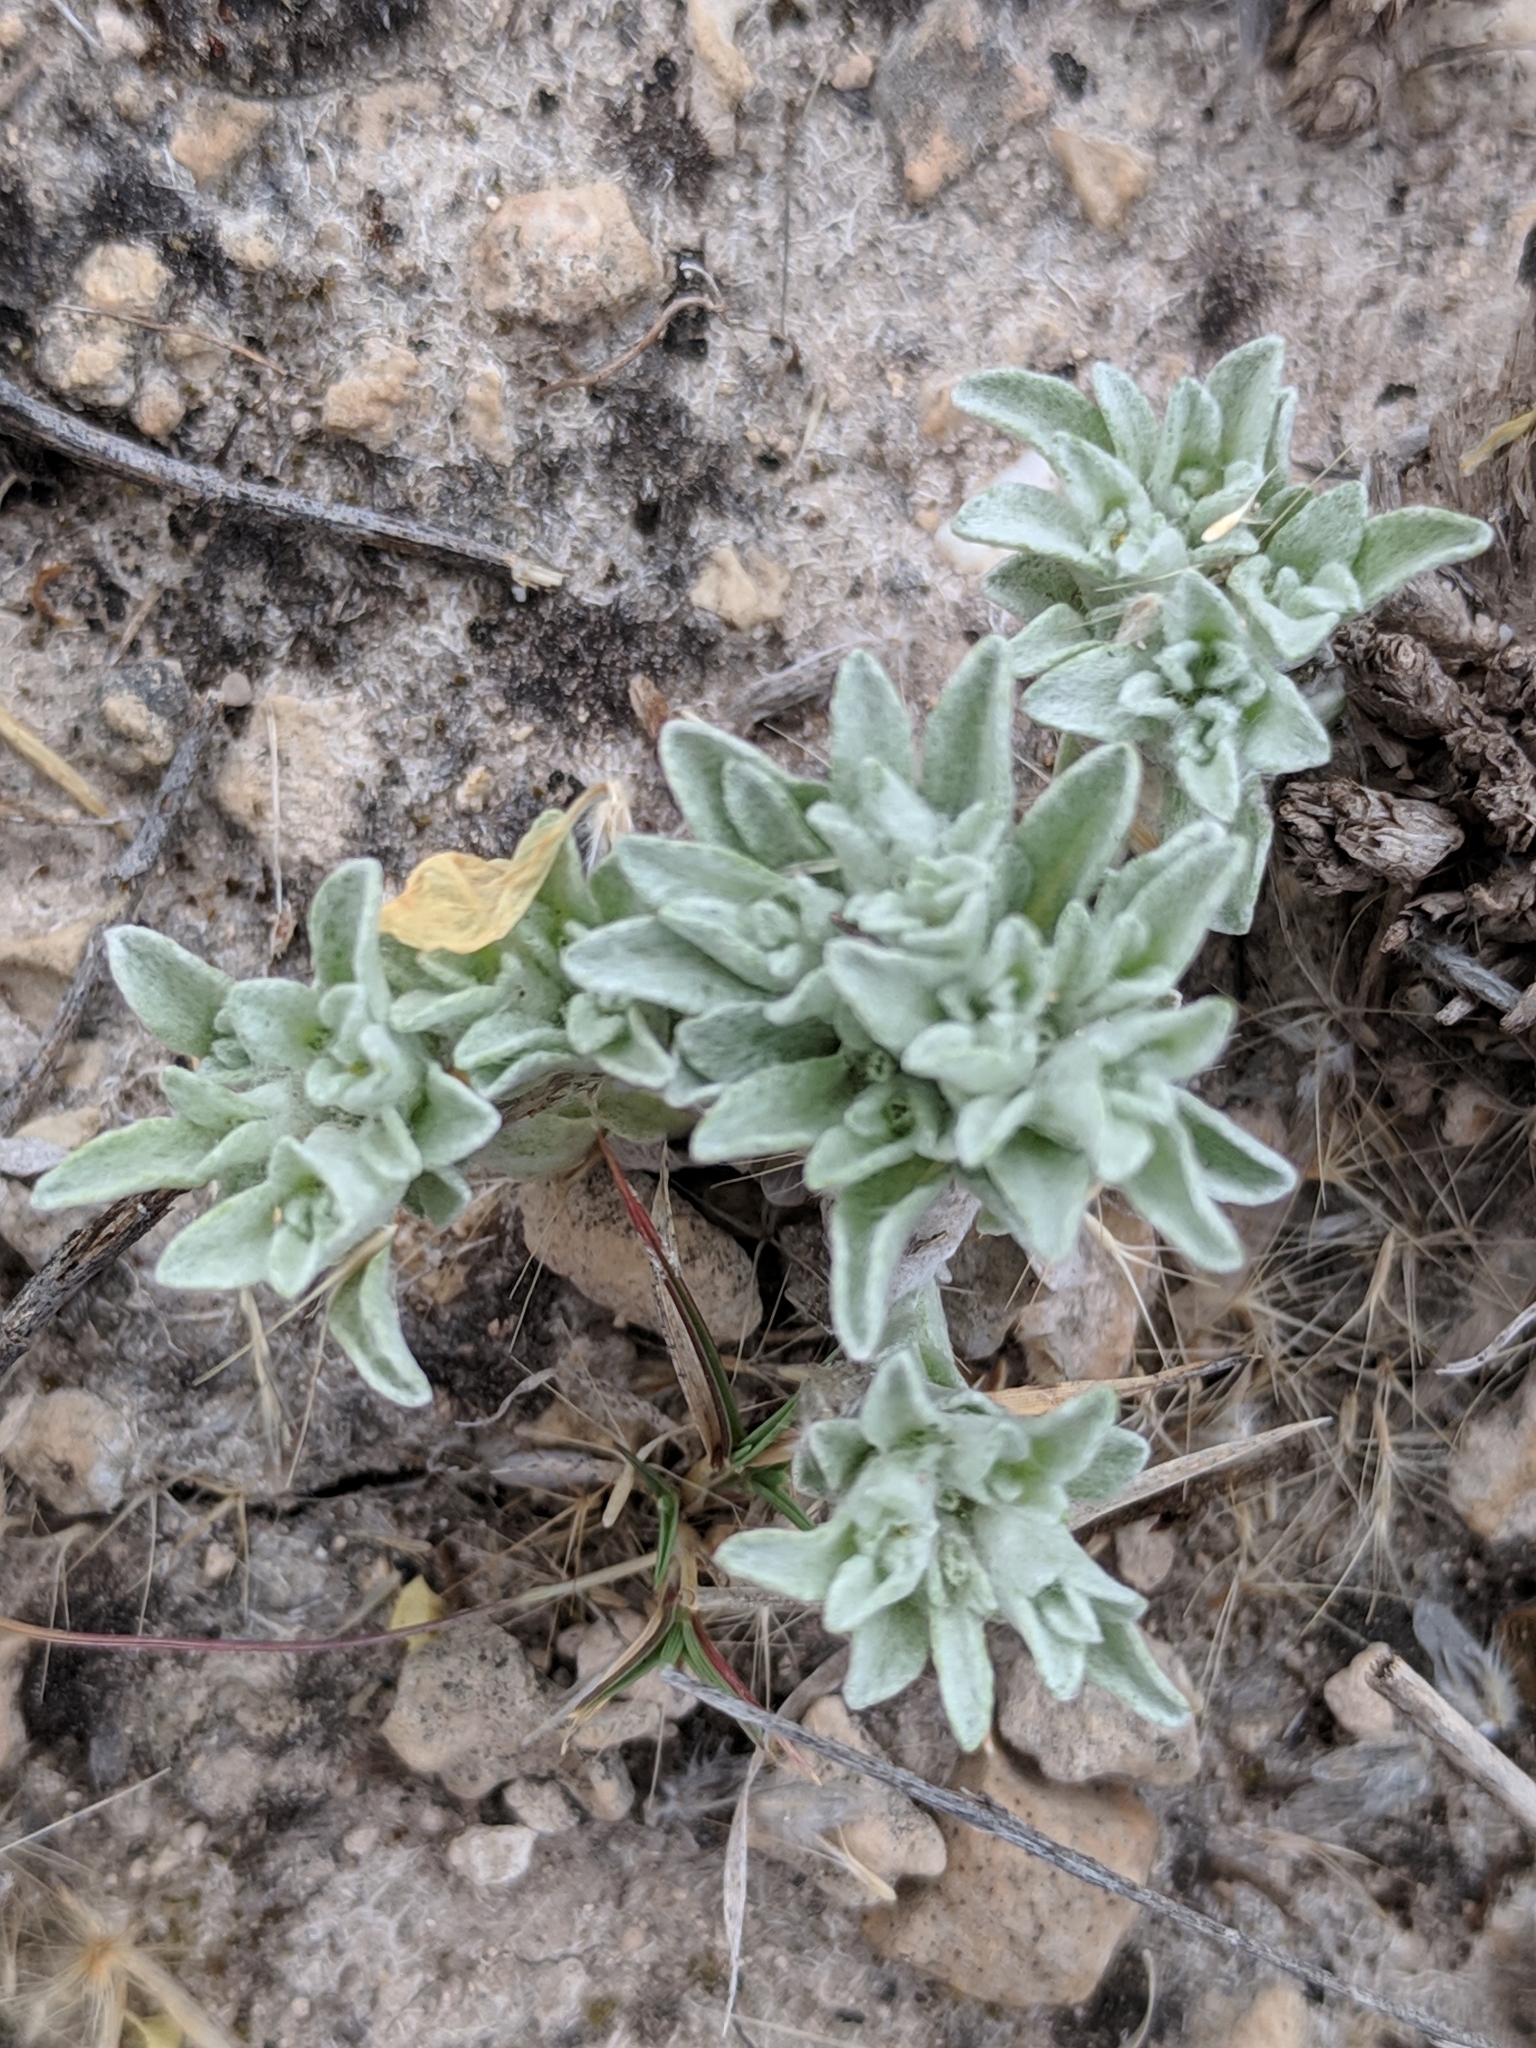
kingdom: Plantae
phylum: Tracheophyta
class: Magnoliopsida
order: Asterales
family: Asteraceae
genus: Diaperia
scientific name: Diaperia prolifera
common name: Big-head rabbit-tobacco
